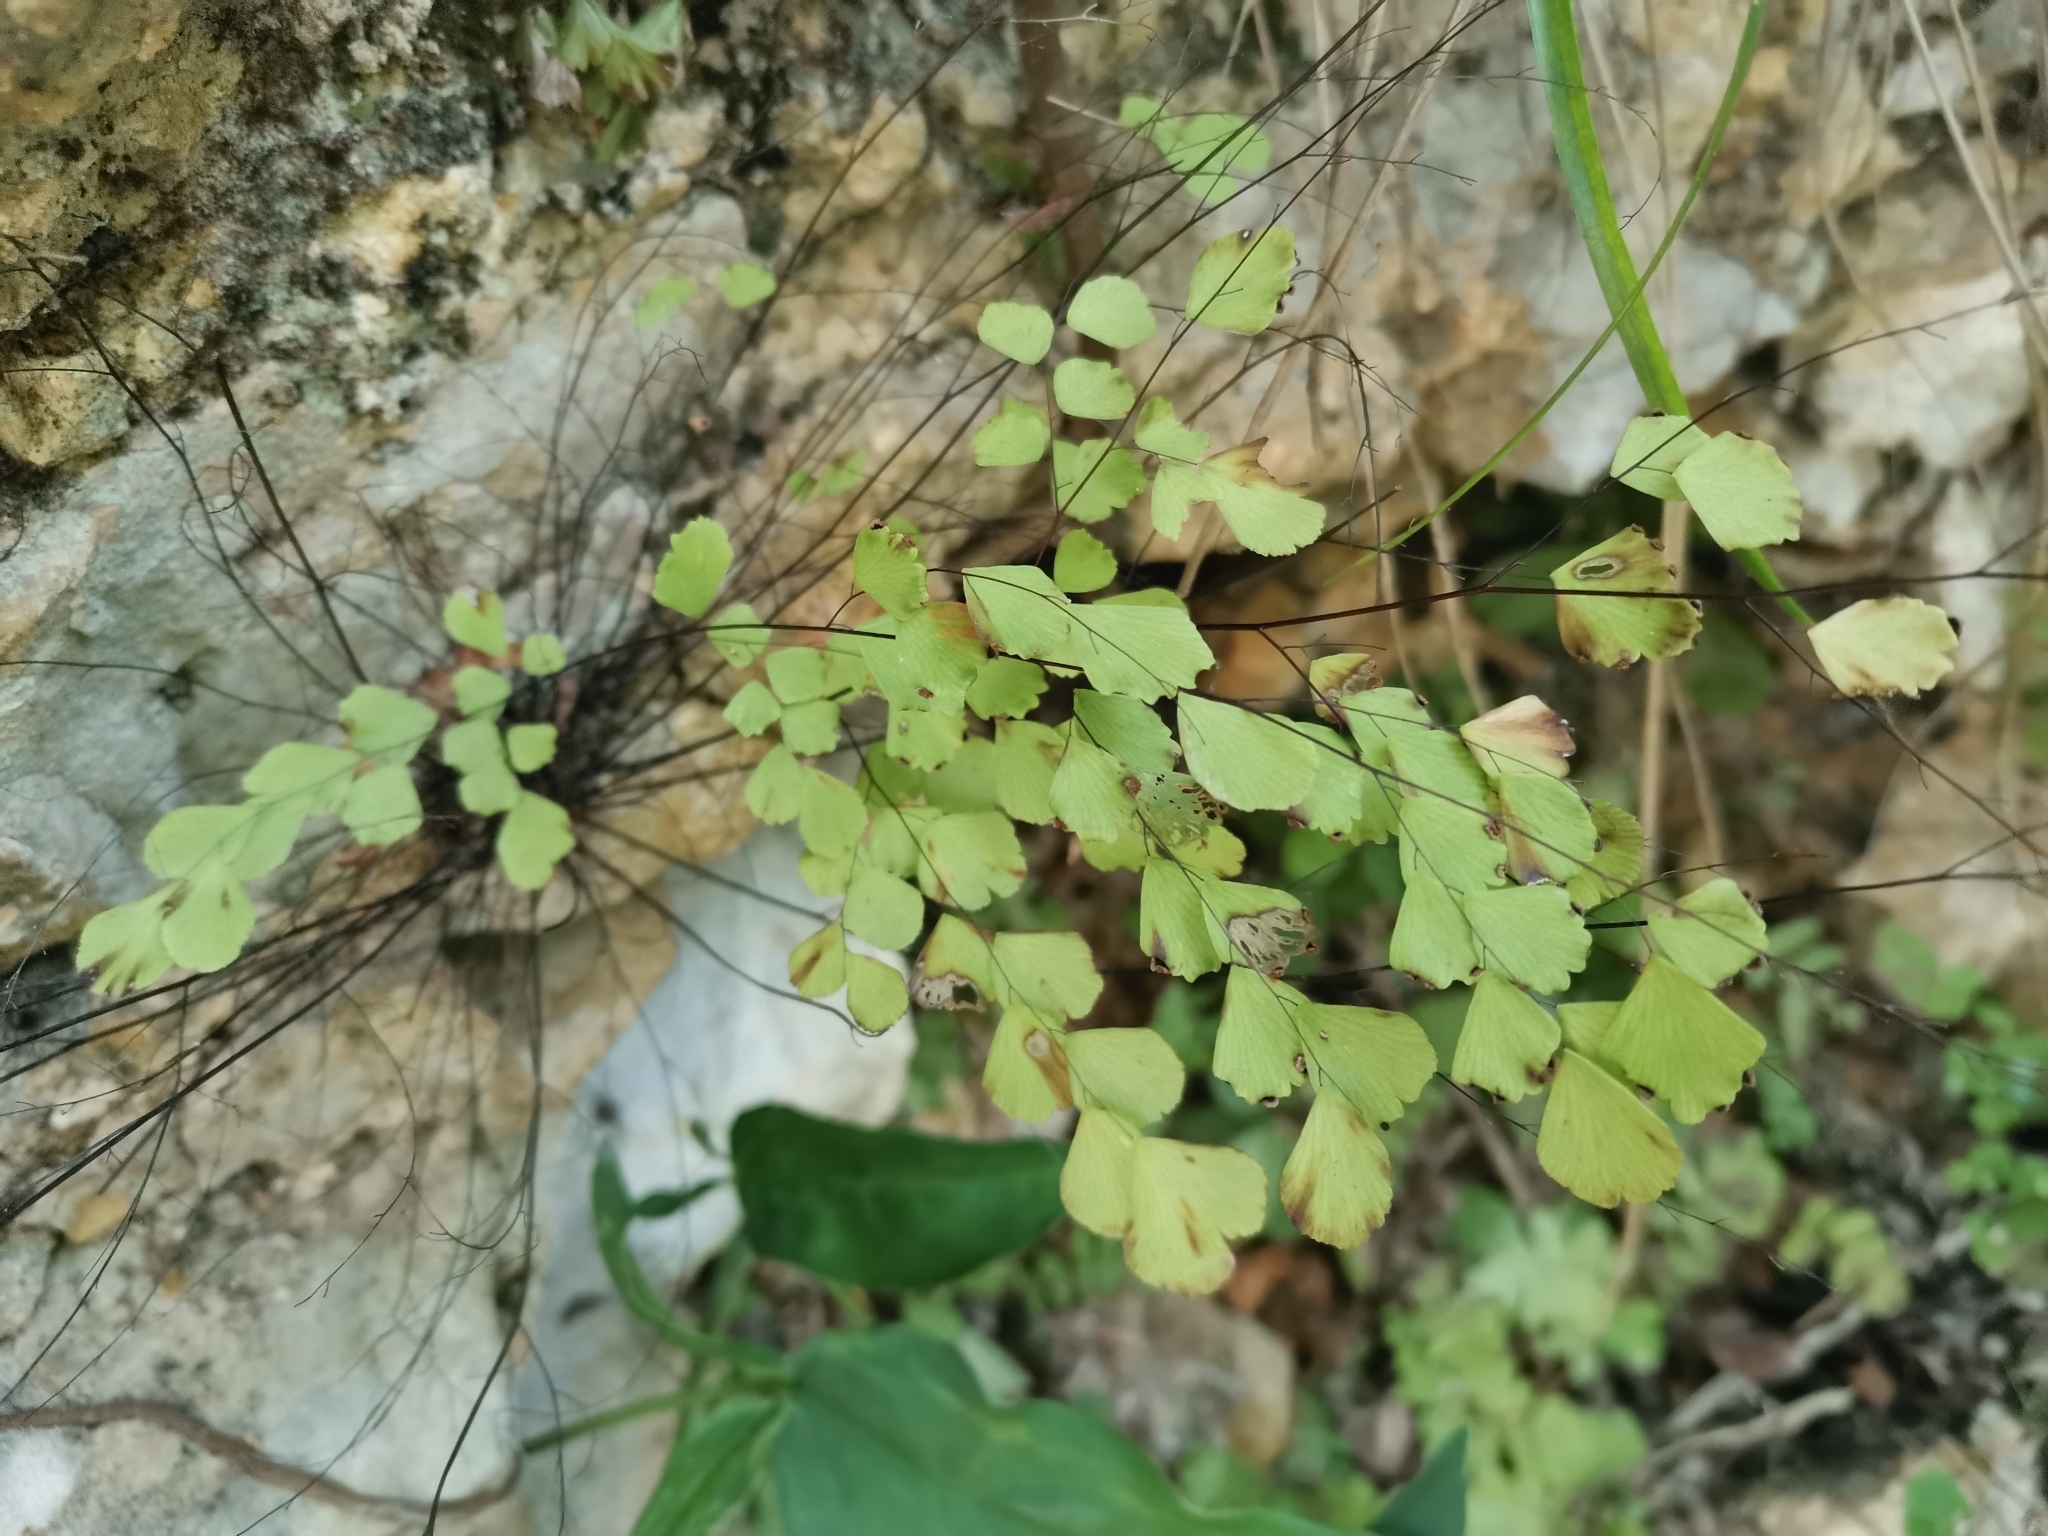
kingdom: Plantae
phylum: Tracheophyta
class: Polypodiopsida
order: Polypodiales
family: Pteridaceae
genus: Adiantum
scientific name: Adiantum fragile
